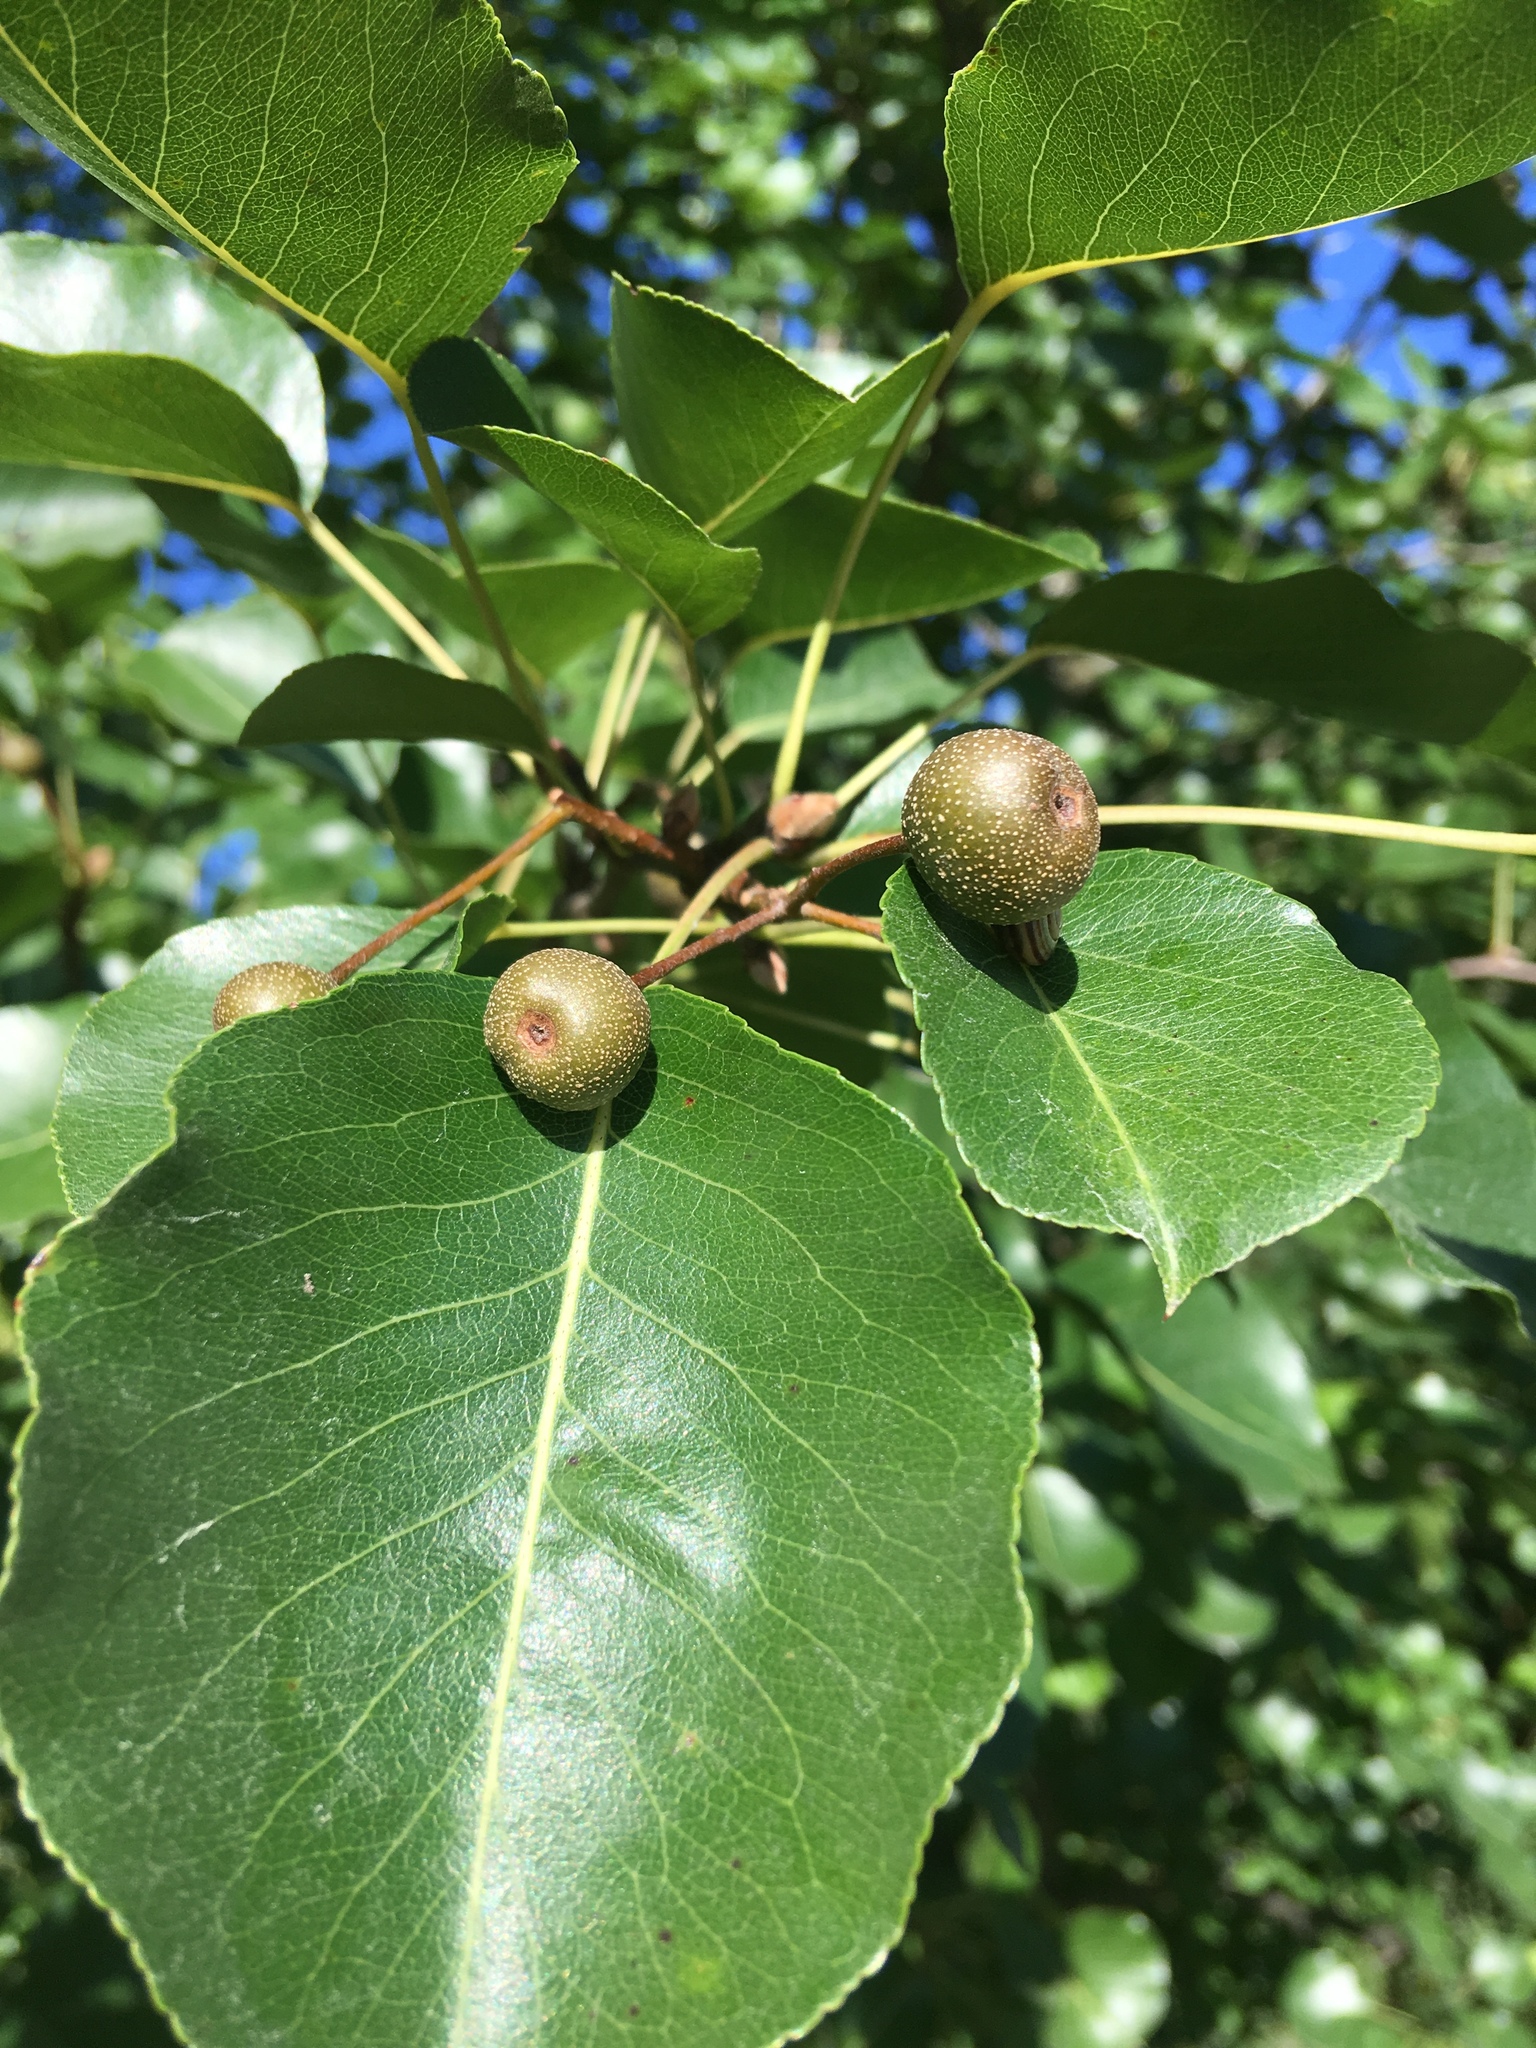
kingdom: Plantae
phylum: Tracheophyta
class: Magnoliopsida
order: Rosales
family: Rosaceae
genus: Pyrus
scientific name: Pyrus calleryana
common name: Callery pear
